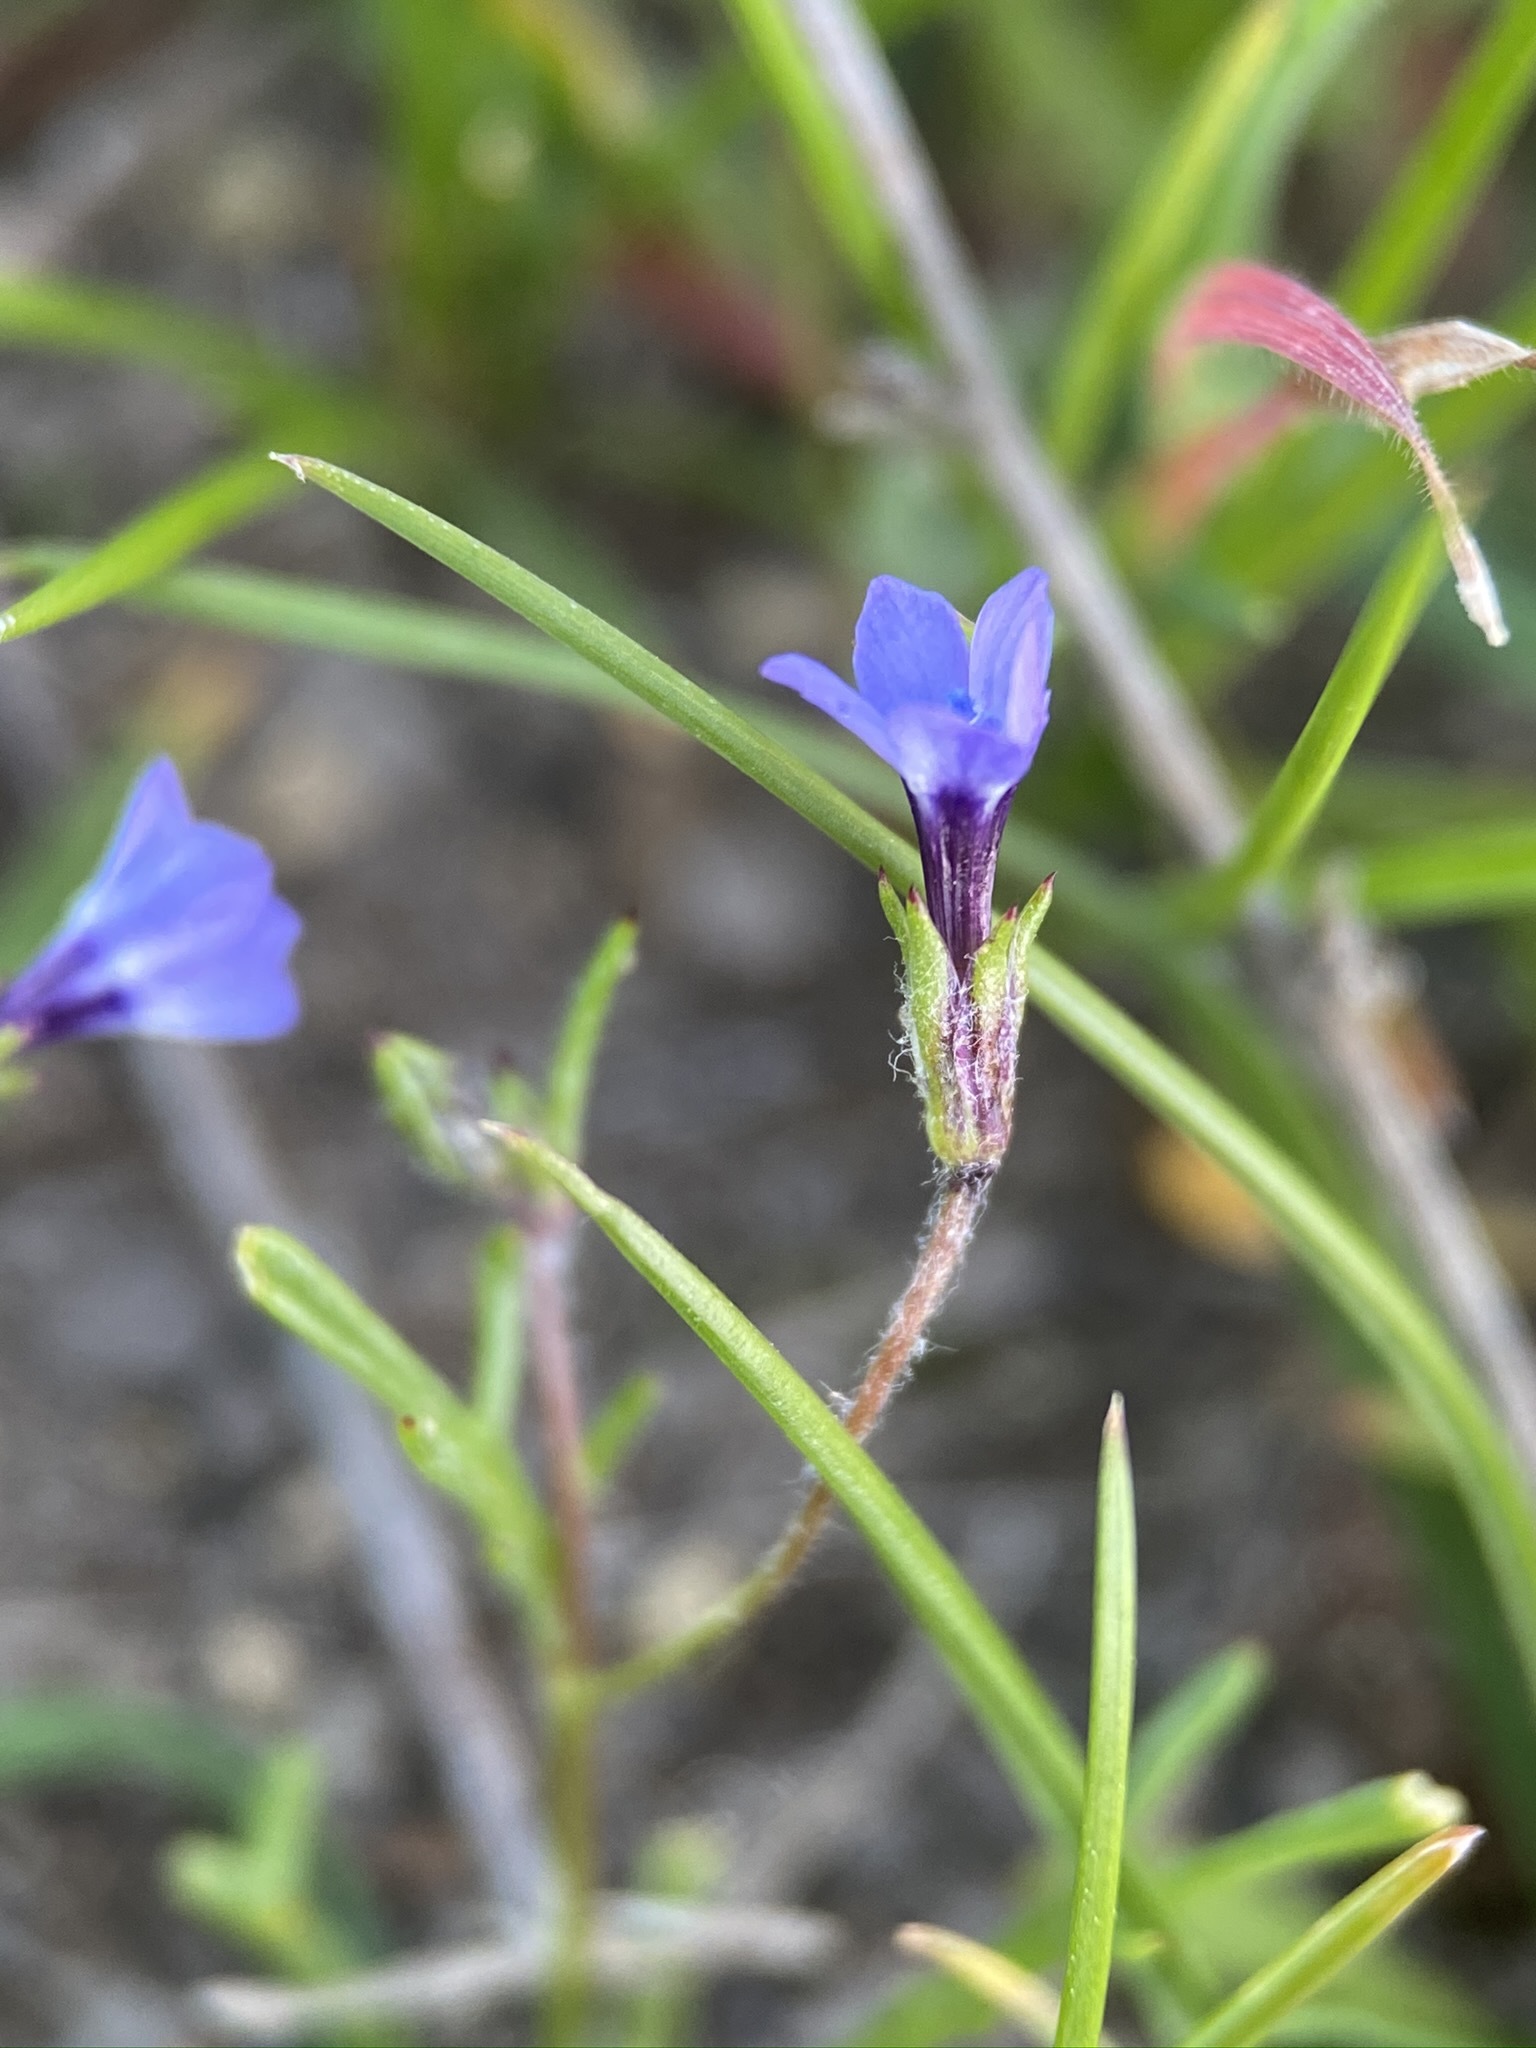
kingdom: Plantae
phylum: Tracheophyta
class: Magnoliopsida
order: Ericales
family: Polemoniaceae
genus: Gilia
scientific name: Gilia minor
